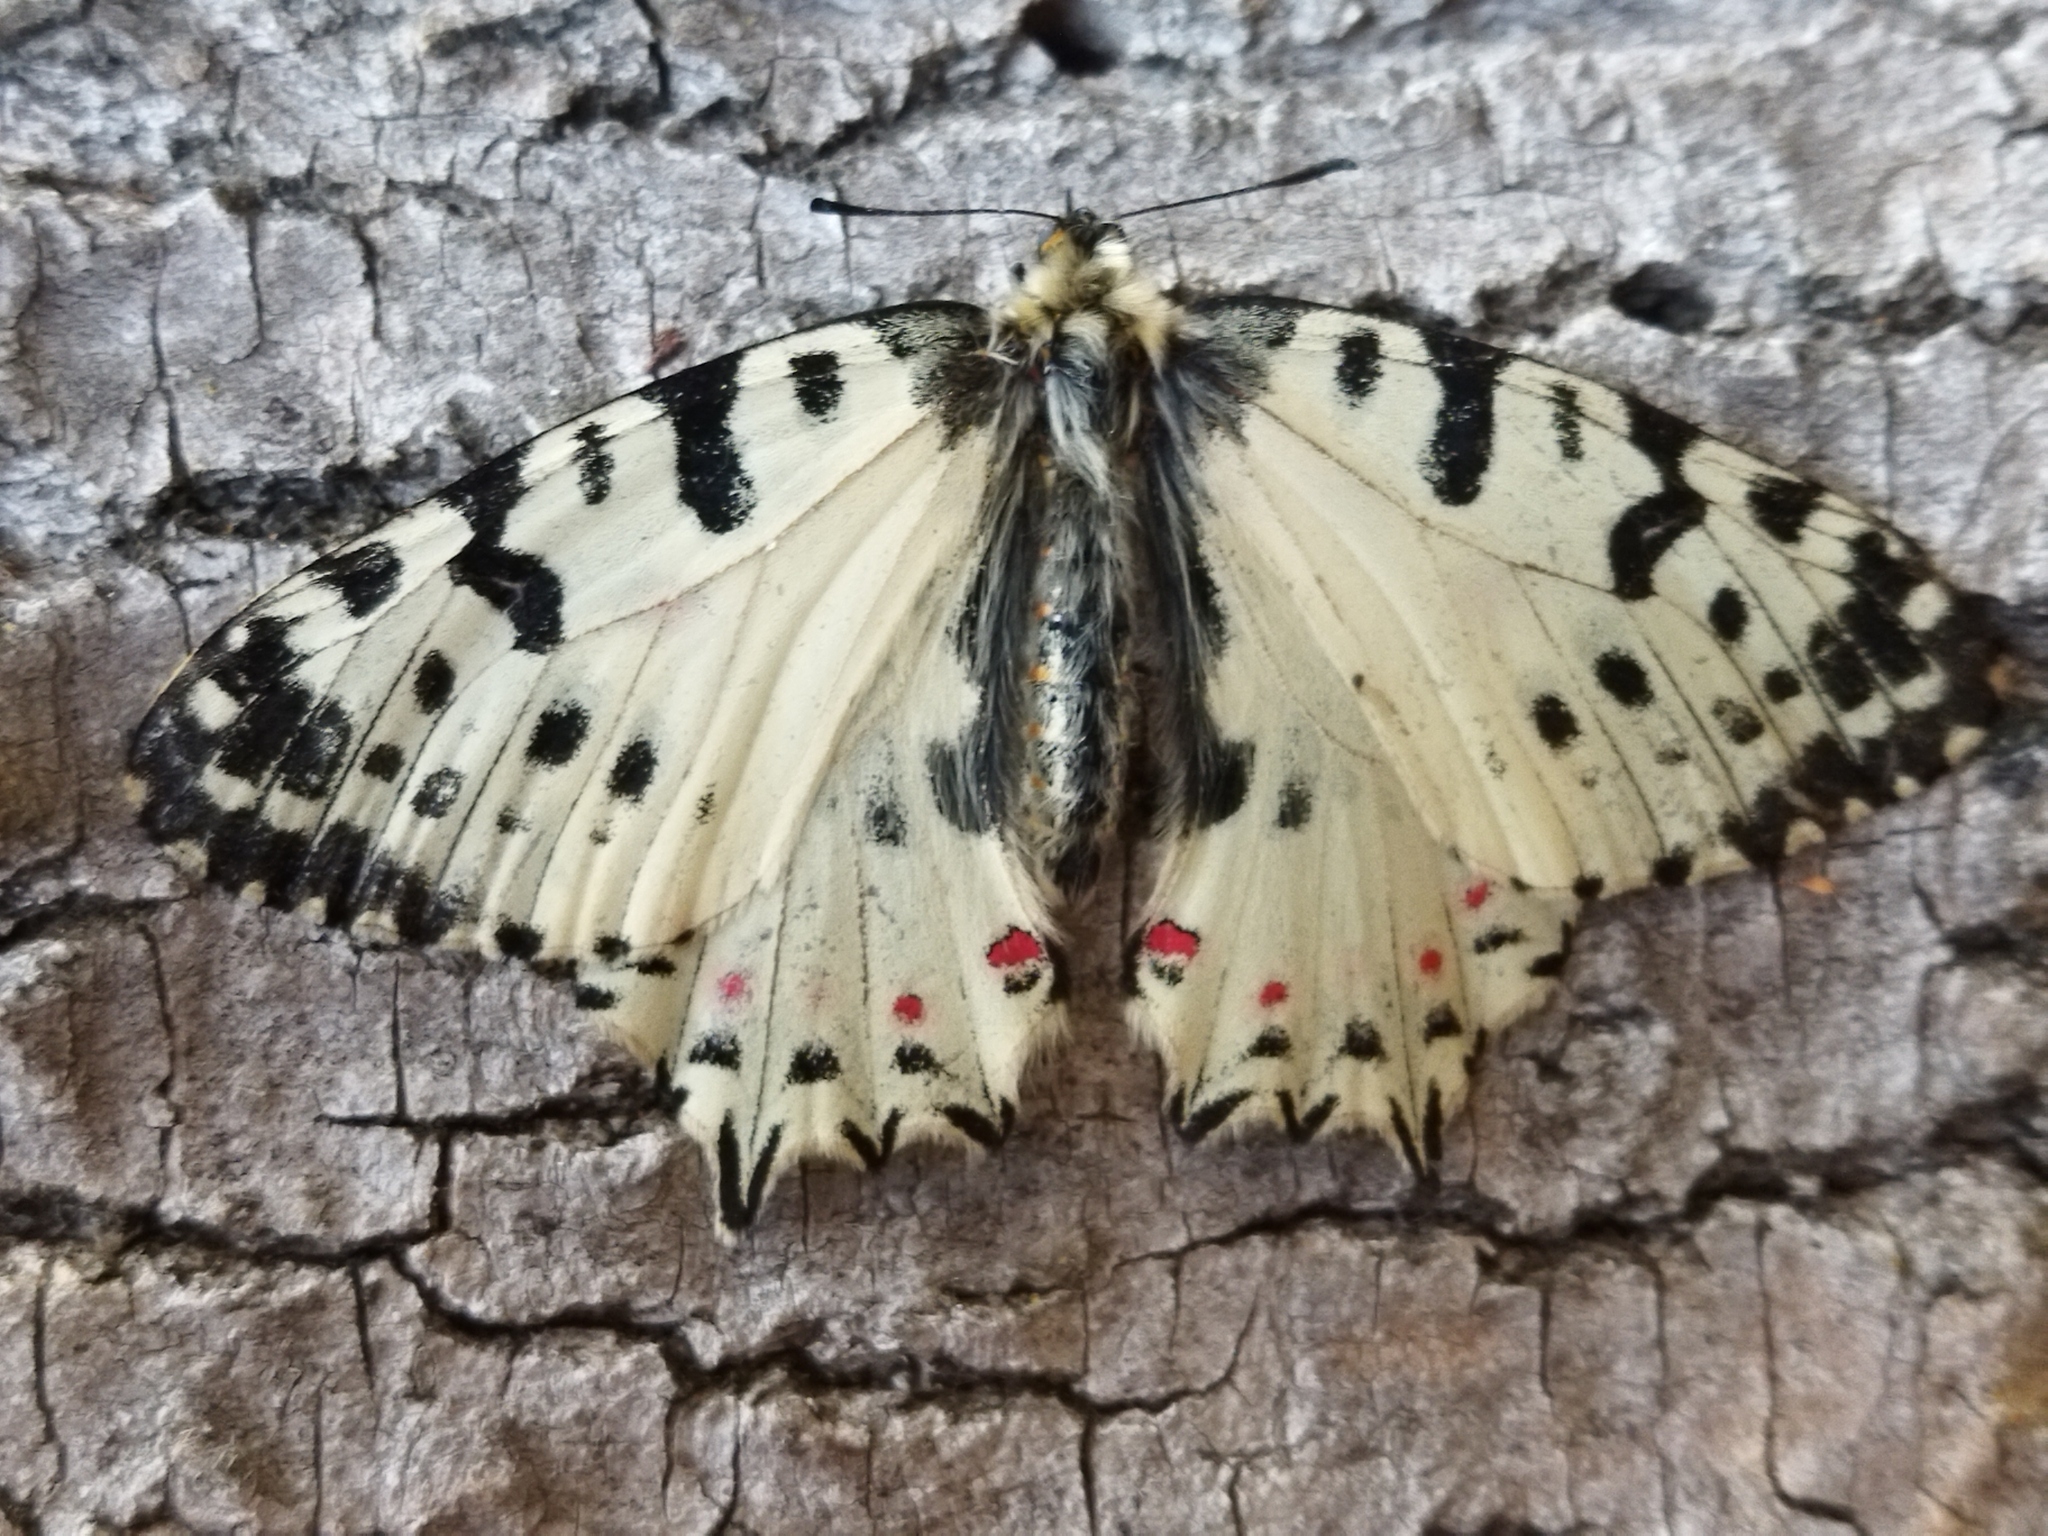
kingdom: Animalia
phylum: Arthropoda
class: Insecta
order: Lepidoptera
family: Papilionidae
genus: Zerynthia
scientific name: Zerynthia cerisy
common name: Eastern festoon
